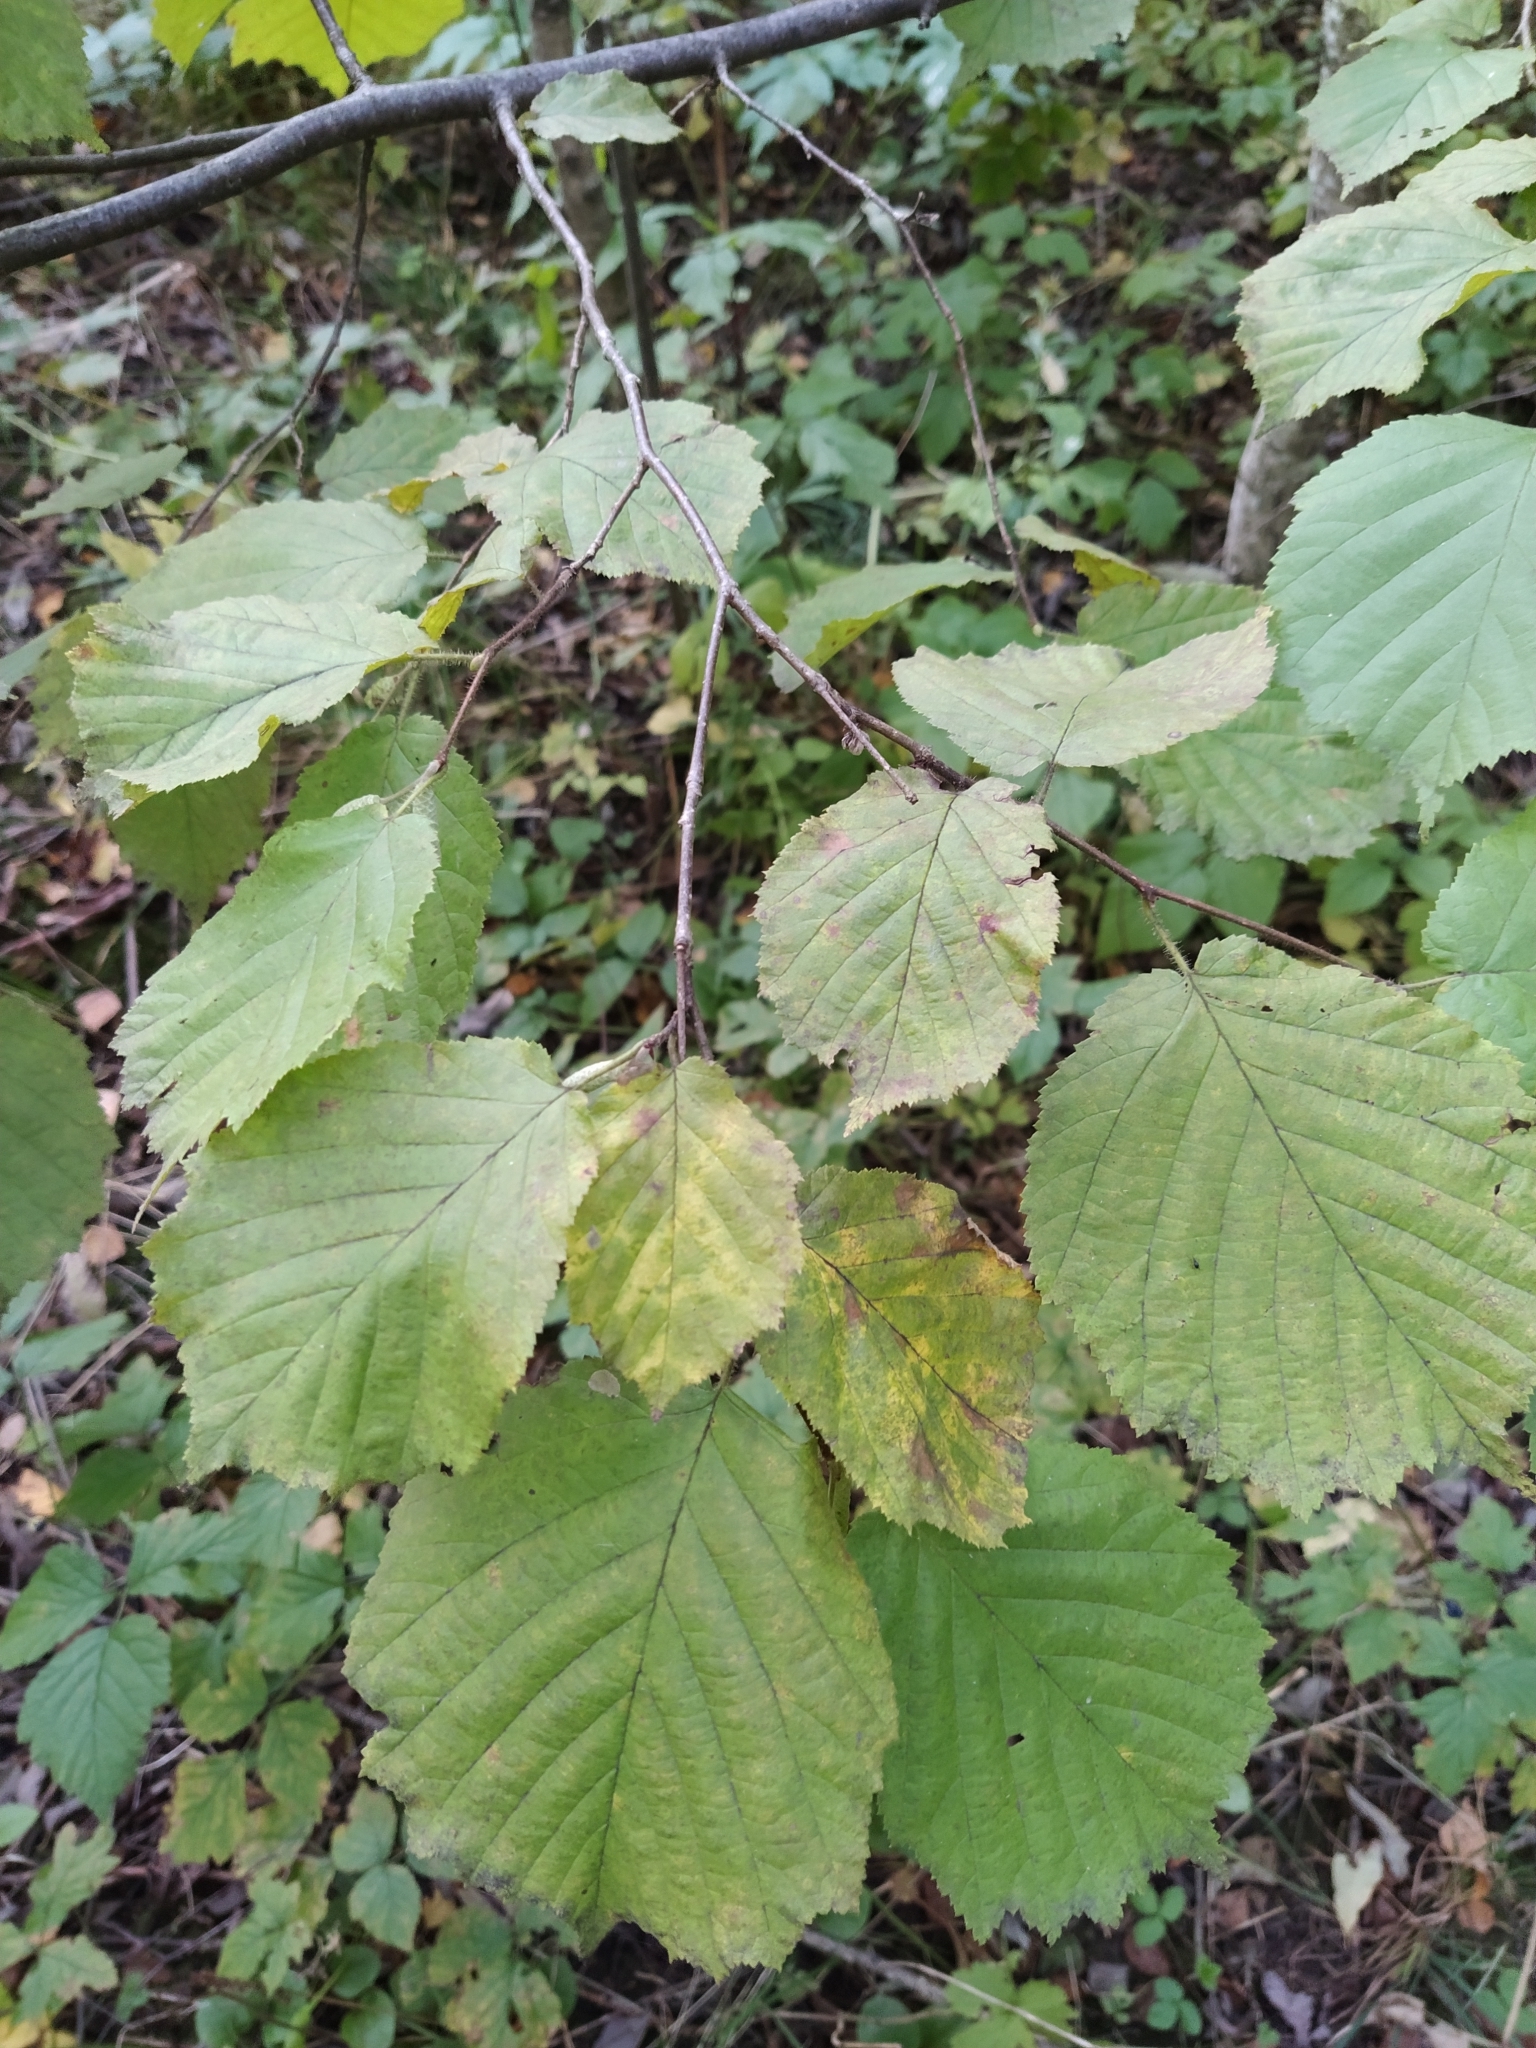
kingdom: Plantae
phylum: Tracheophyta
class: Magnoliopsida
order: Fagales
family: Betulaceae
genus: Corylus
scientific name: Corylus avellana
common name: European hazel
